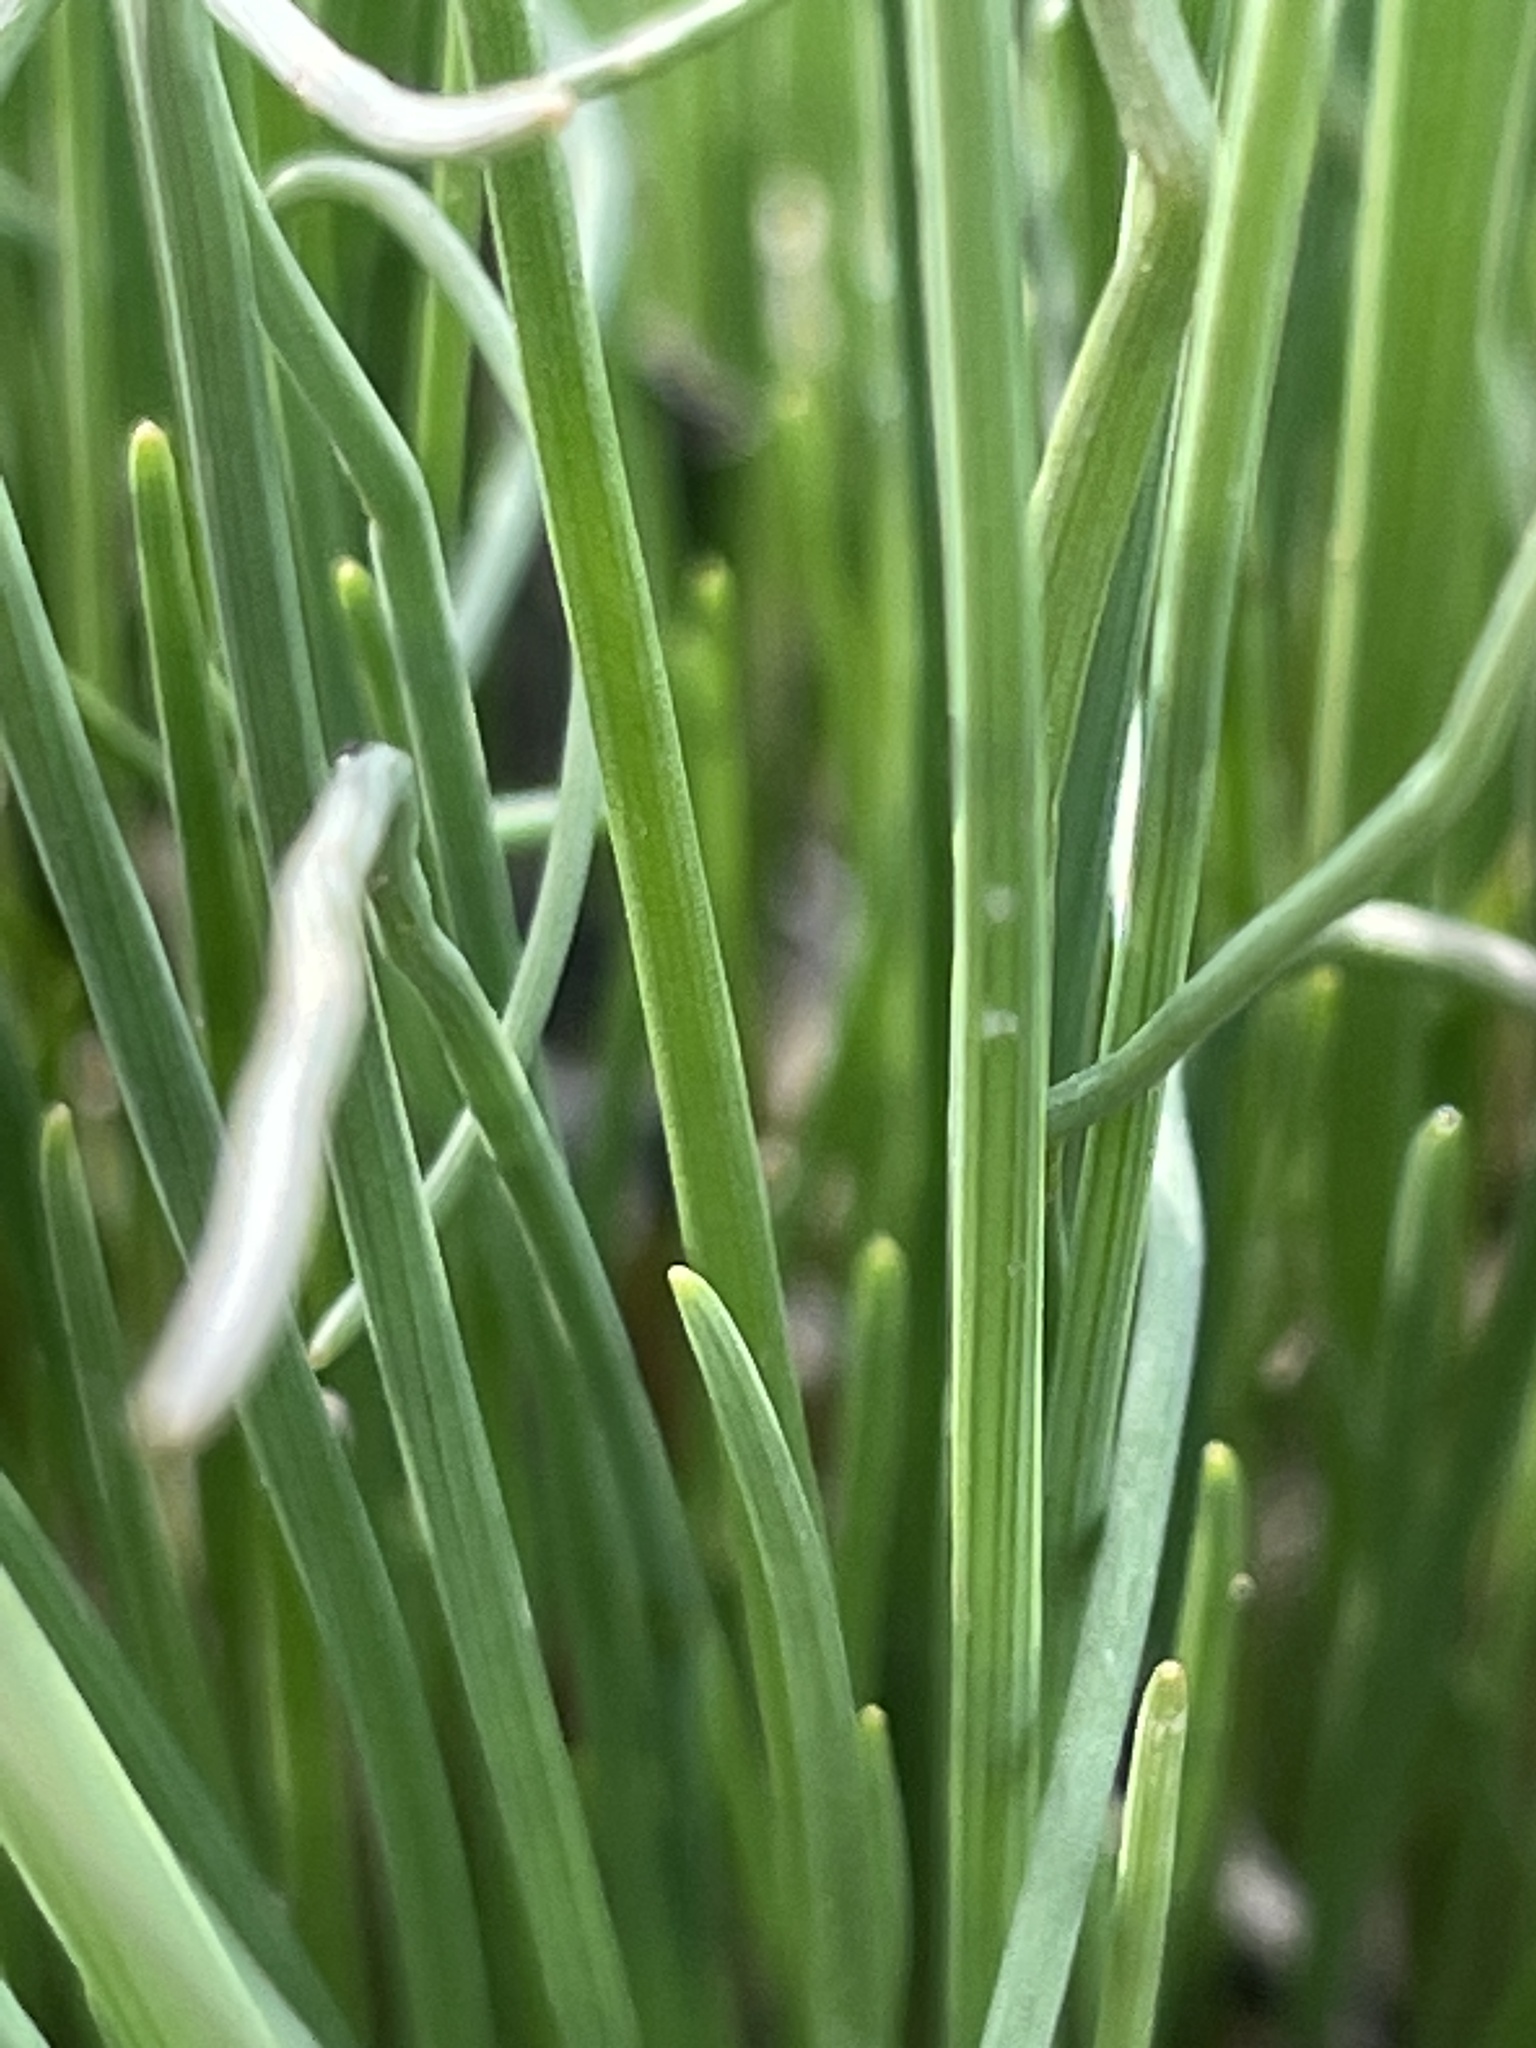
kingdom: Plantae
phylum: Tracheophyta
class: Liliopsida
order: Asparagales
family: Amaryllidaceae
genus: Allium
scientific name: Allium vineale
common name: Crow garlic
